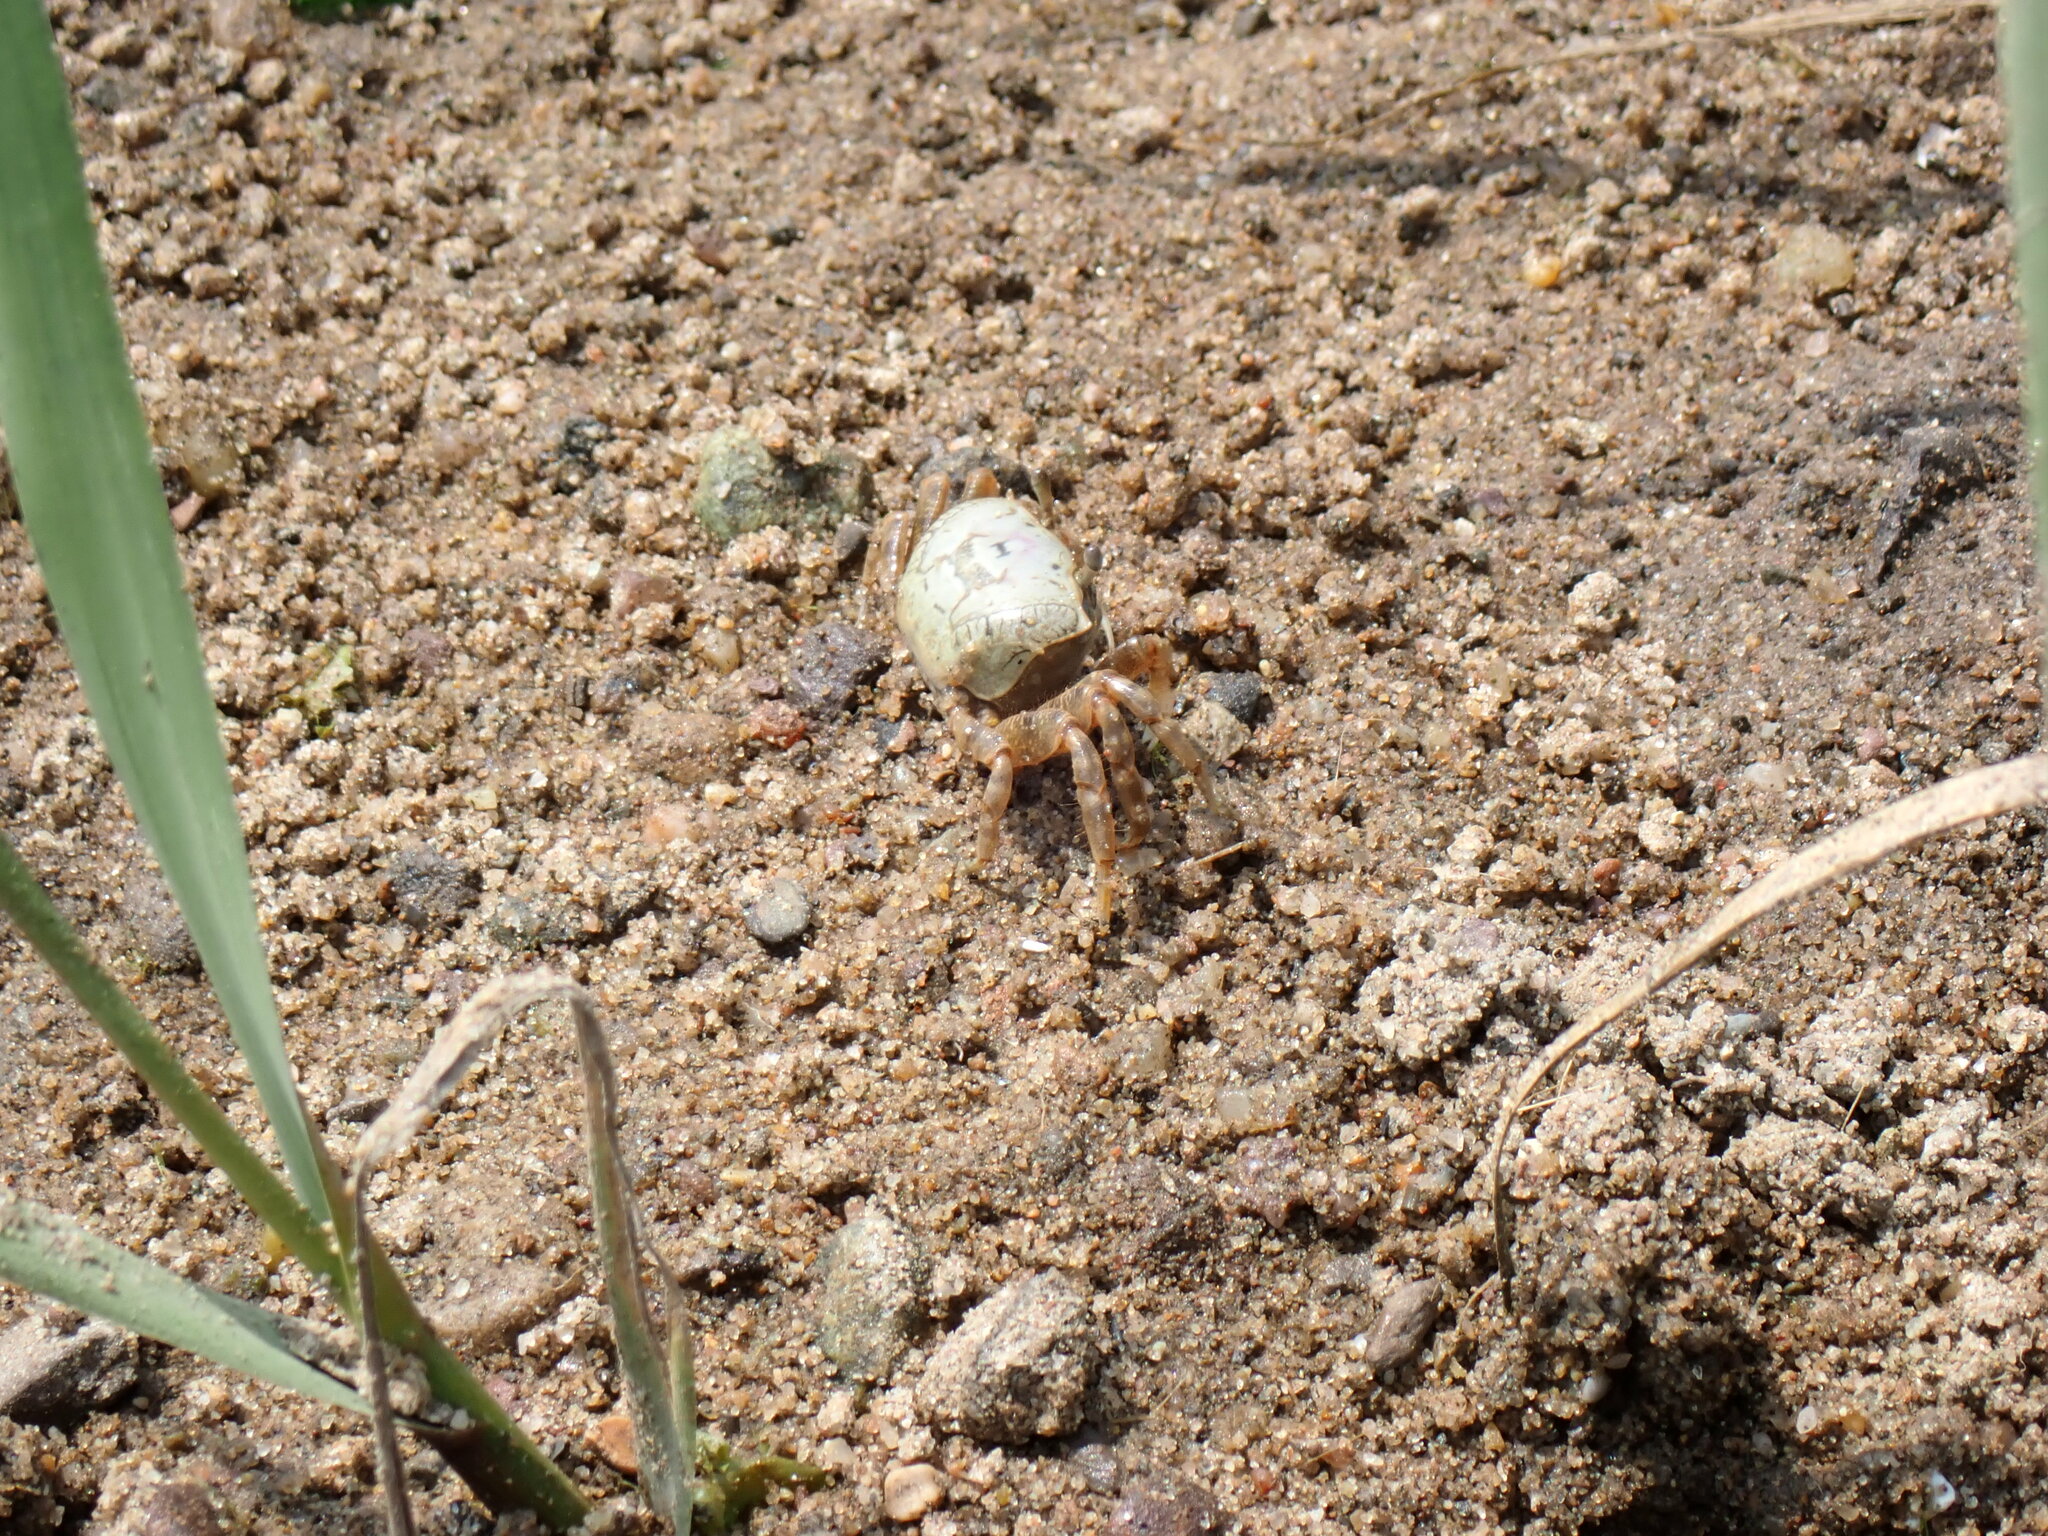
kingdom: Animalia
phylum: Arthropoda
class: Malacostraca
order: Decapoda
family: Ocypodidae
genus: Leptuca
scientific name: Leptuca pugilator
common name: Atlantic sand fiddler crab
